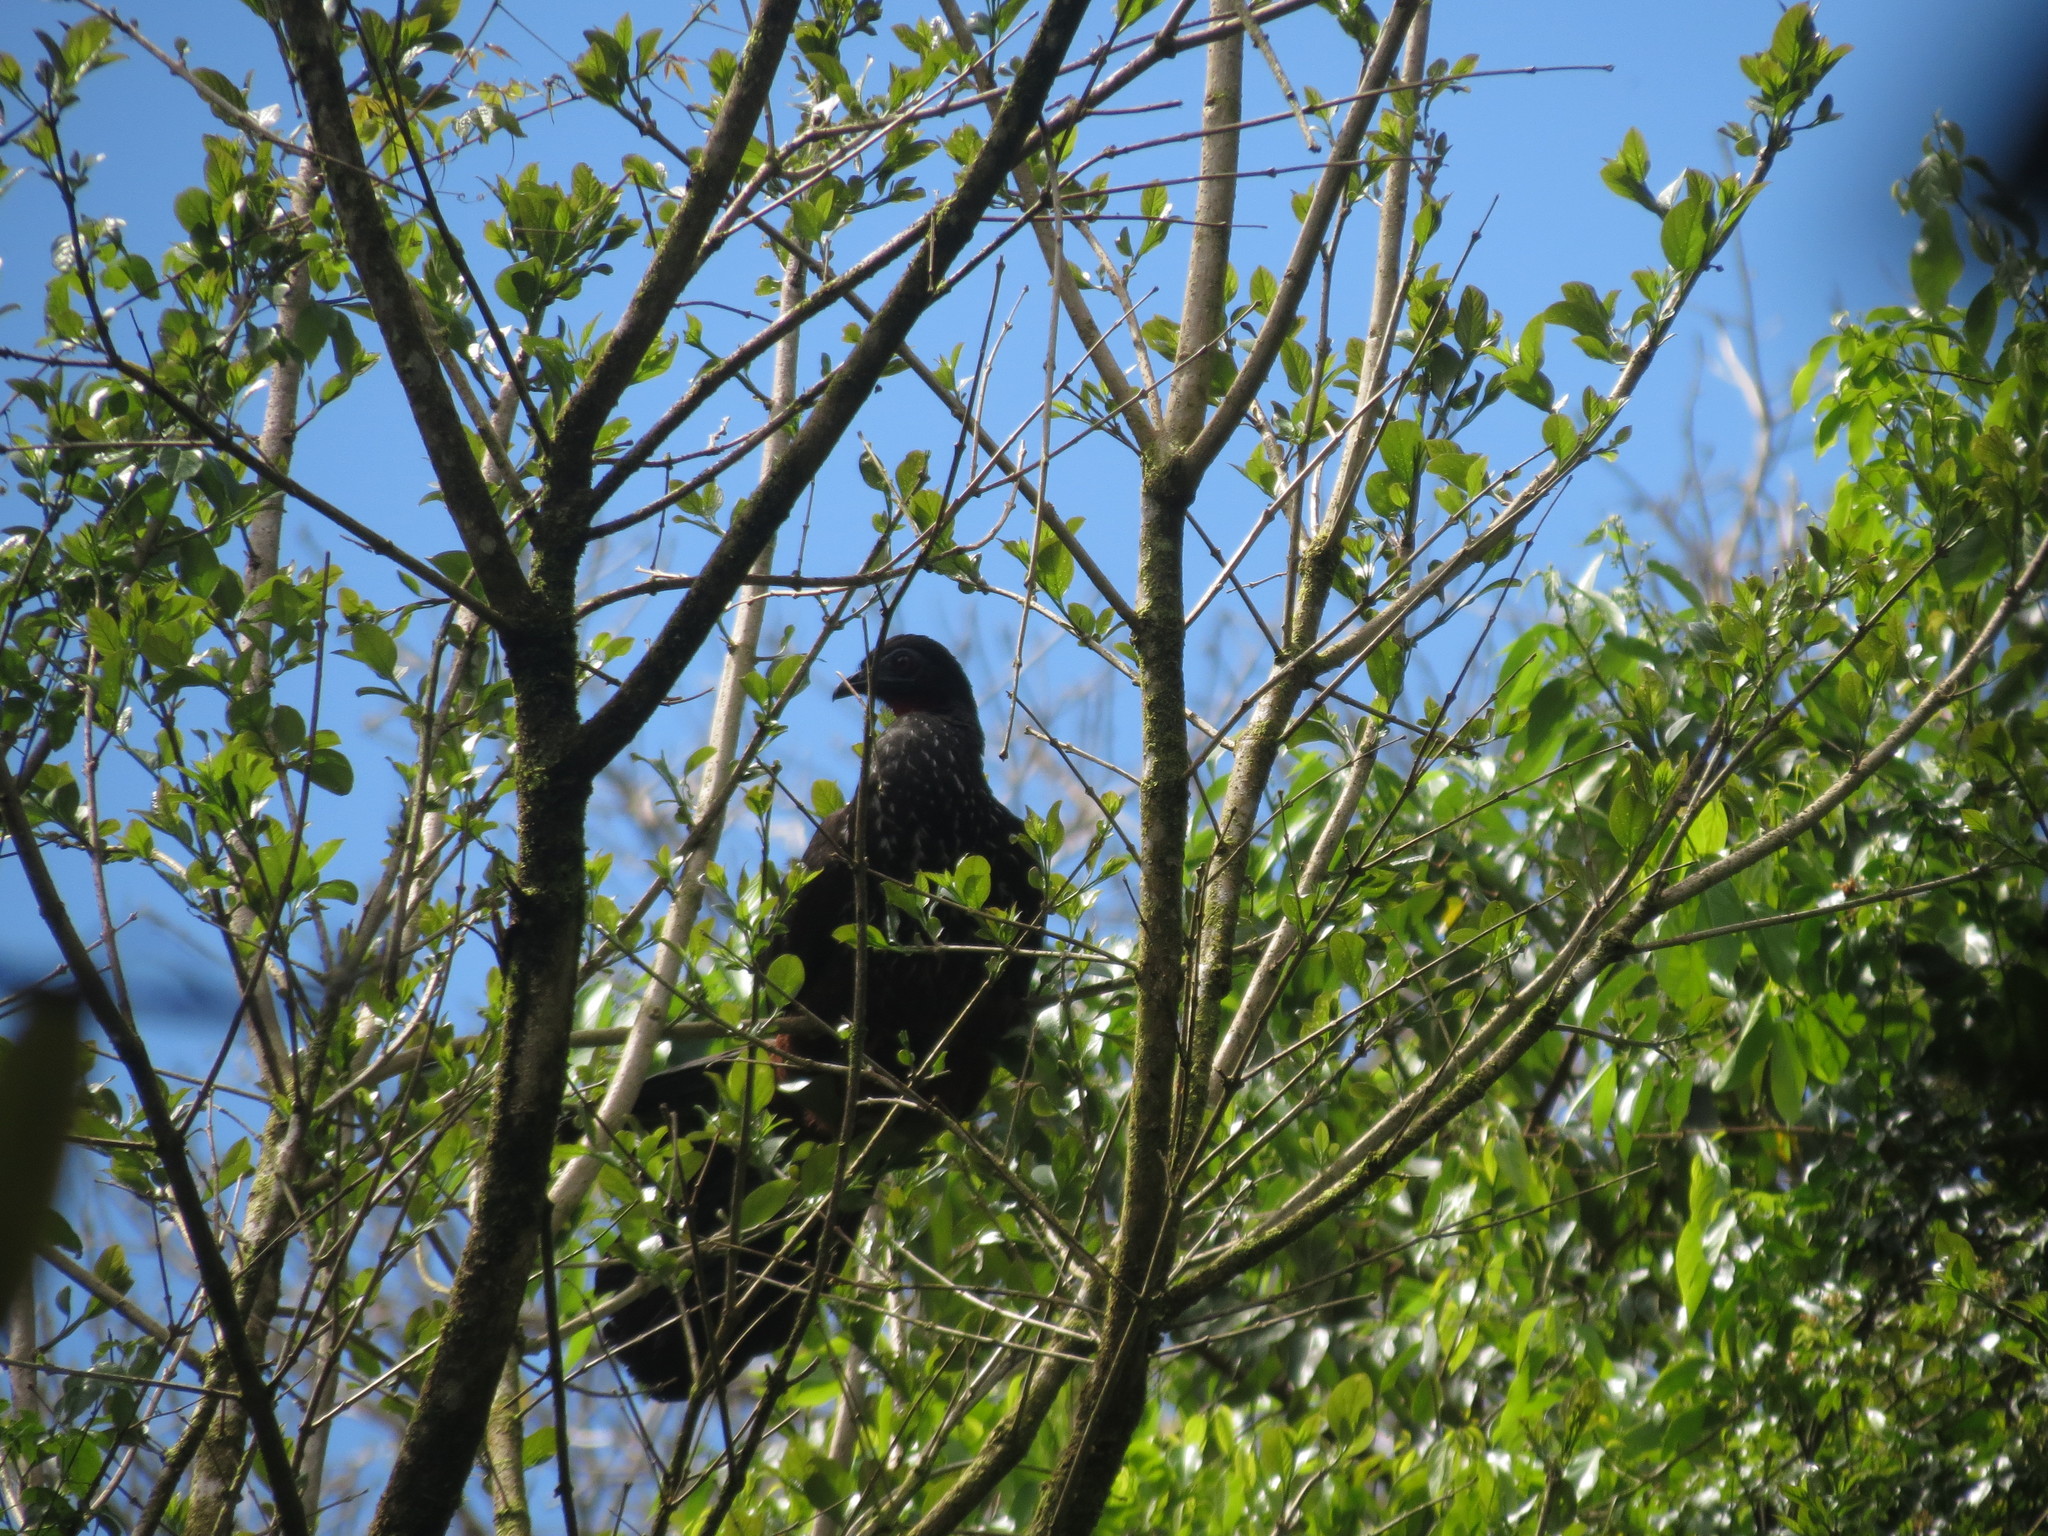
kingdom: Animalia
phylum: Chordata
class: Aves
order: Galliformes
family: Cracidae
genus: Penelope
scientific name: Penelope purpurascens
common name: Crested guan
